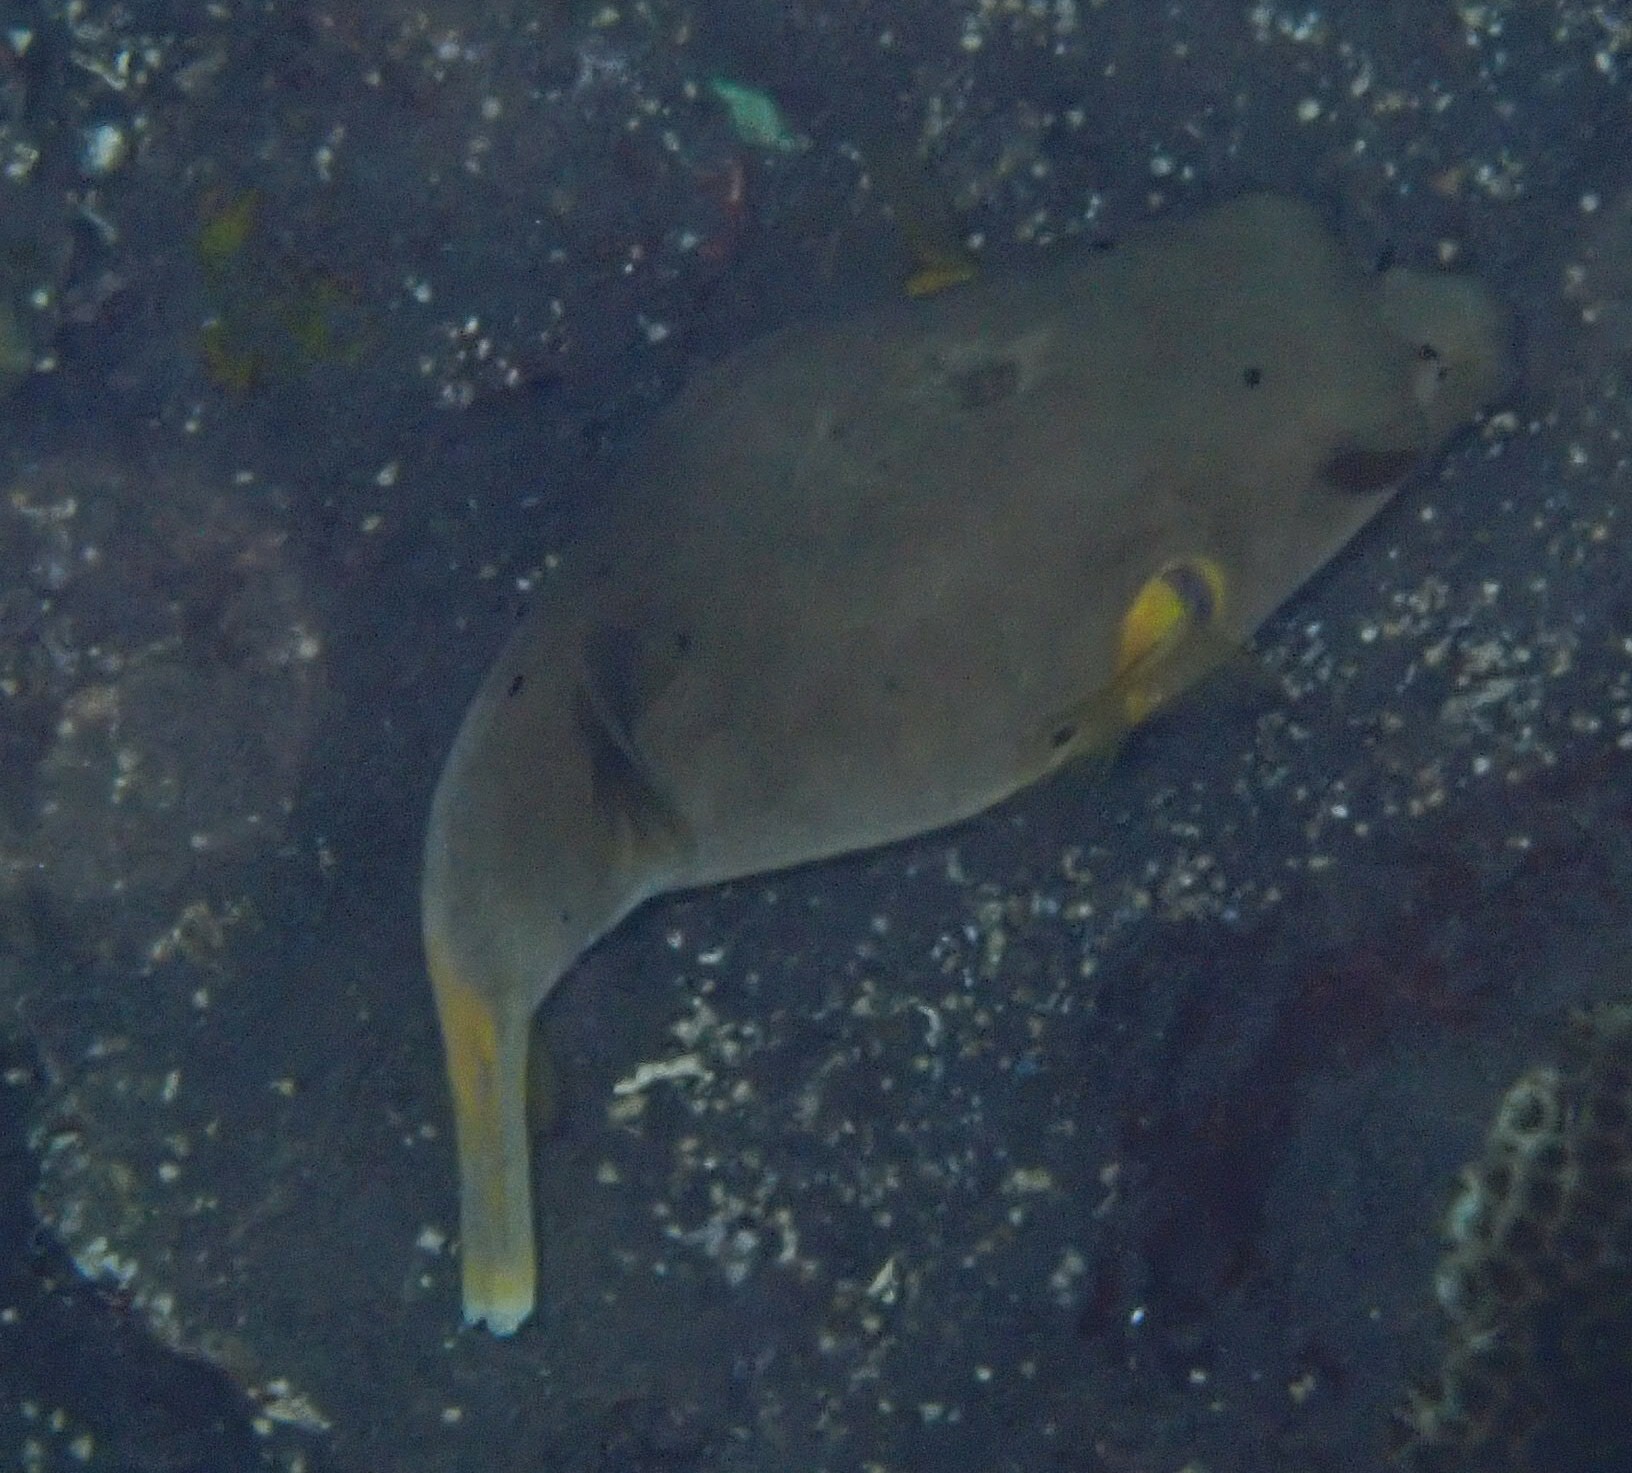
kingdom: Animalia
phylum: Chordata
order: Tetraodontiformes
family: Tetraodontidae
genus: Arothron
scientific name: Arothron nigropunctatus
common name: Black spotted blow fish
